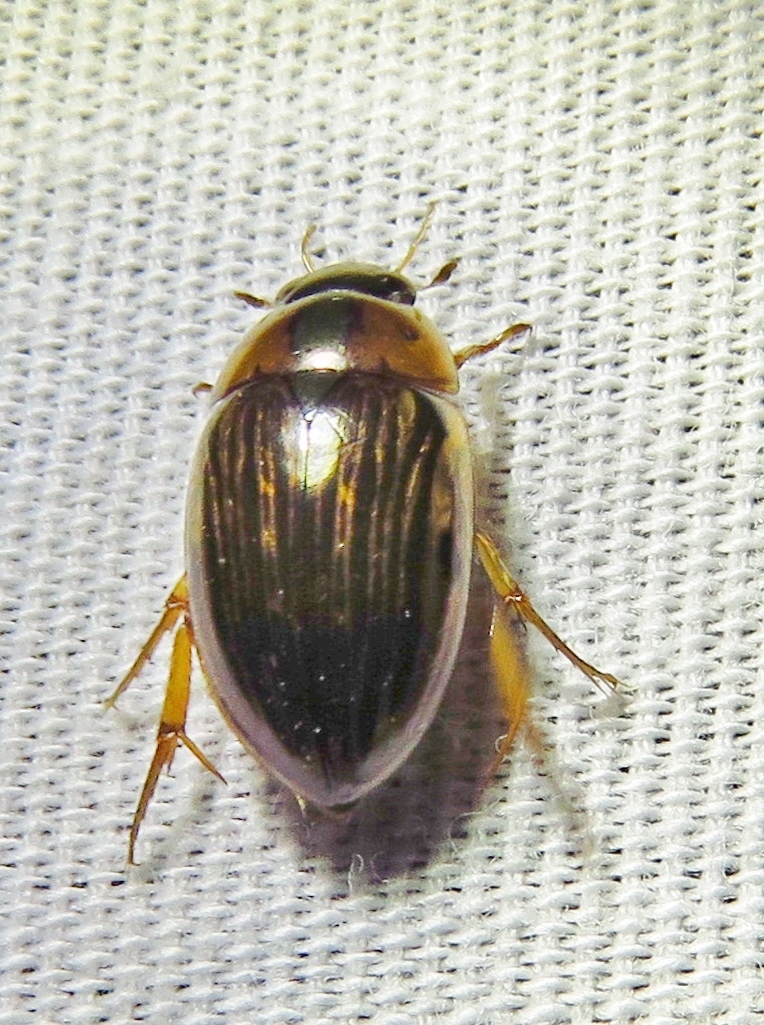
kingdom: Animalia
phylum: Arthropoda
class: Insecta
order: Coleoptera
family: Hydrophilidae
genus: Tropisternus
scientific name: Tropisternus collaris
